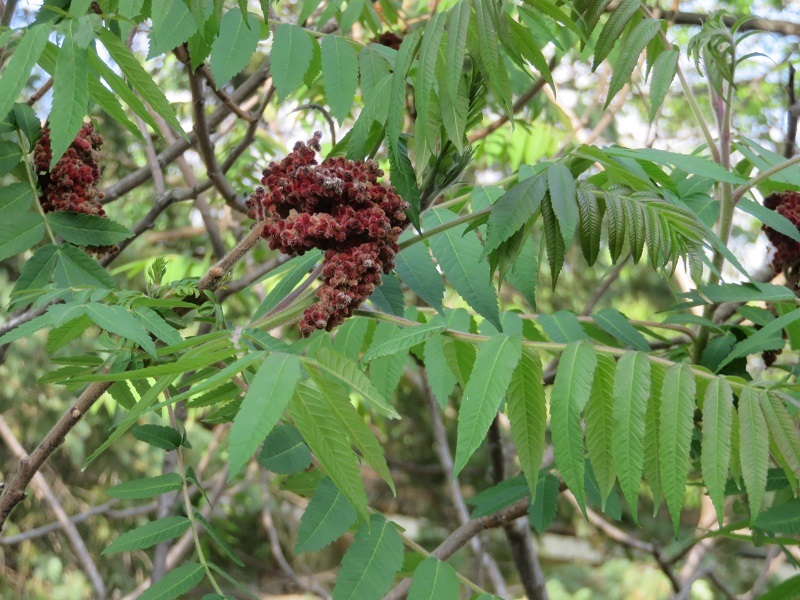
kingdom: Plantae
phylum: Tracheophyta
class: Magnoliopsida
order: Sapindales
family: Anacardiaceae
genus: Rhus
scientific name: Rhus typhina
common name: Staghorn sumac
